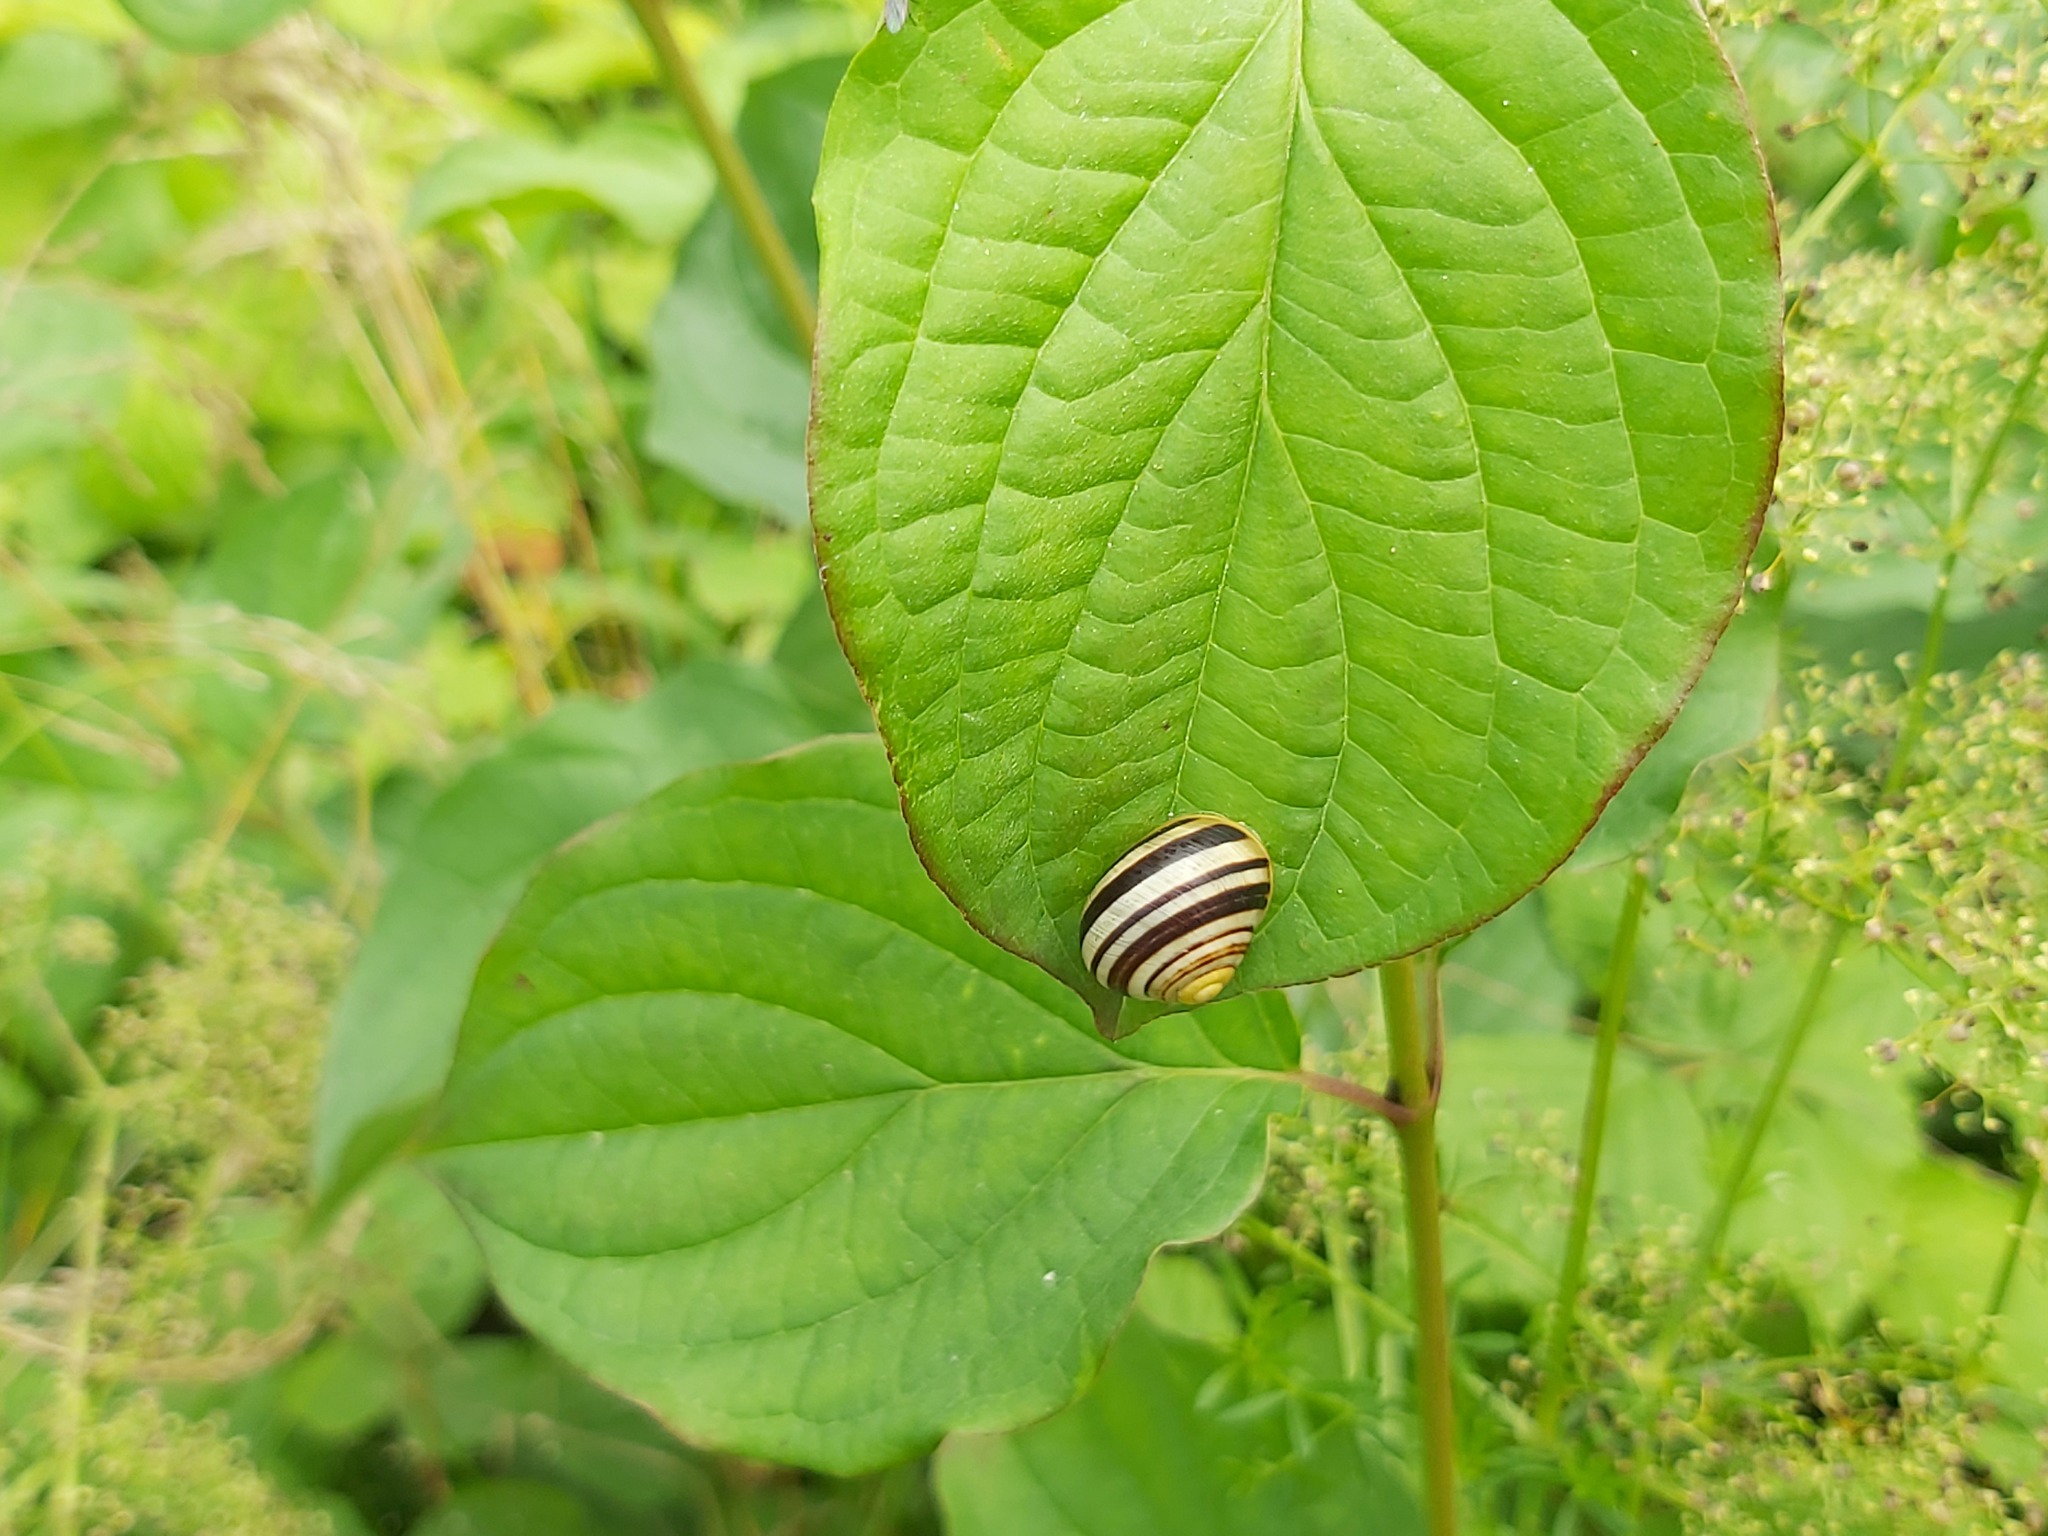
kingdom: Animalia
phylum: Mollusca
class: Gastropoda
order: Stylommatophora
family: Helicidae
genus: Cepaea
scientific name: Cepaea
